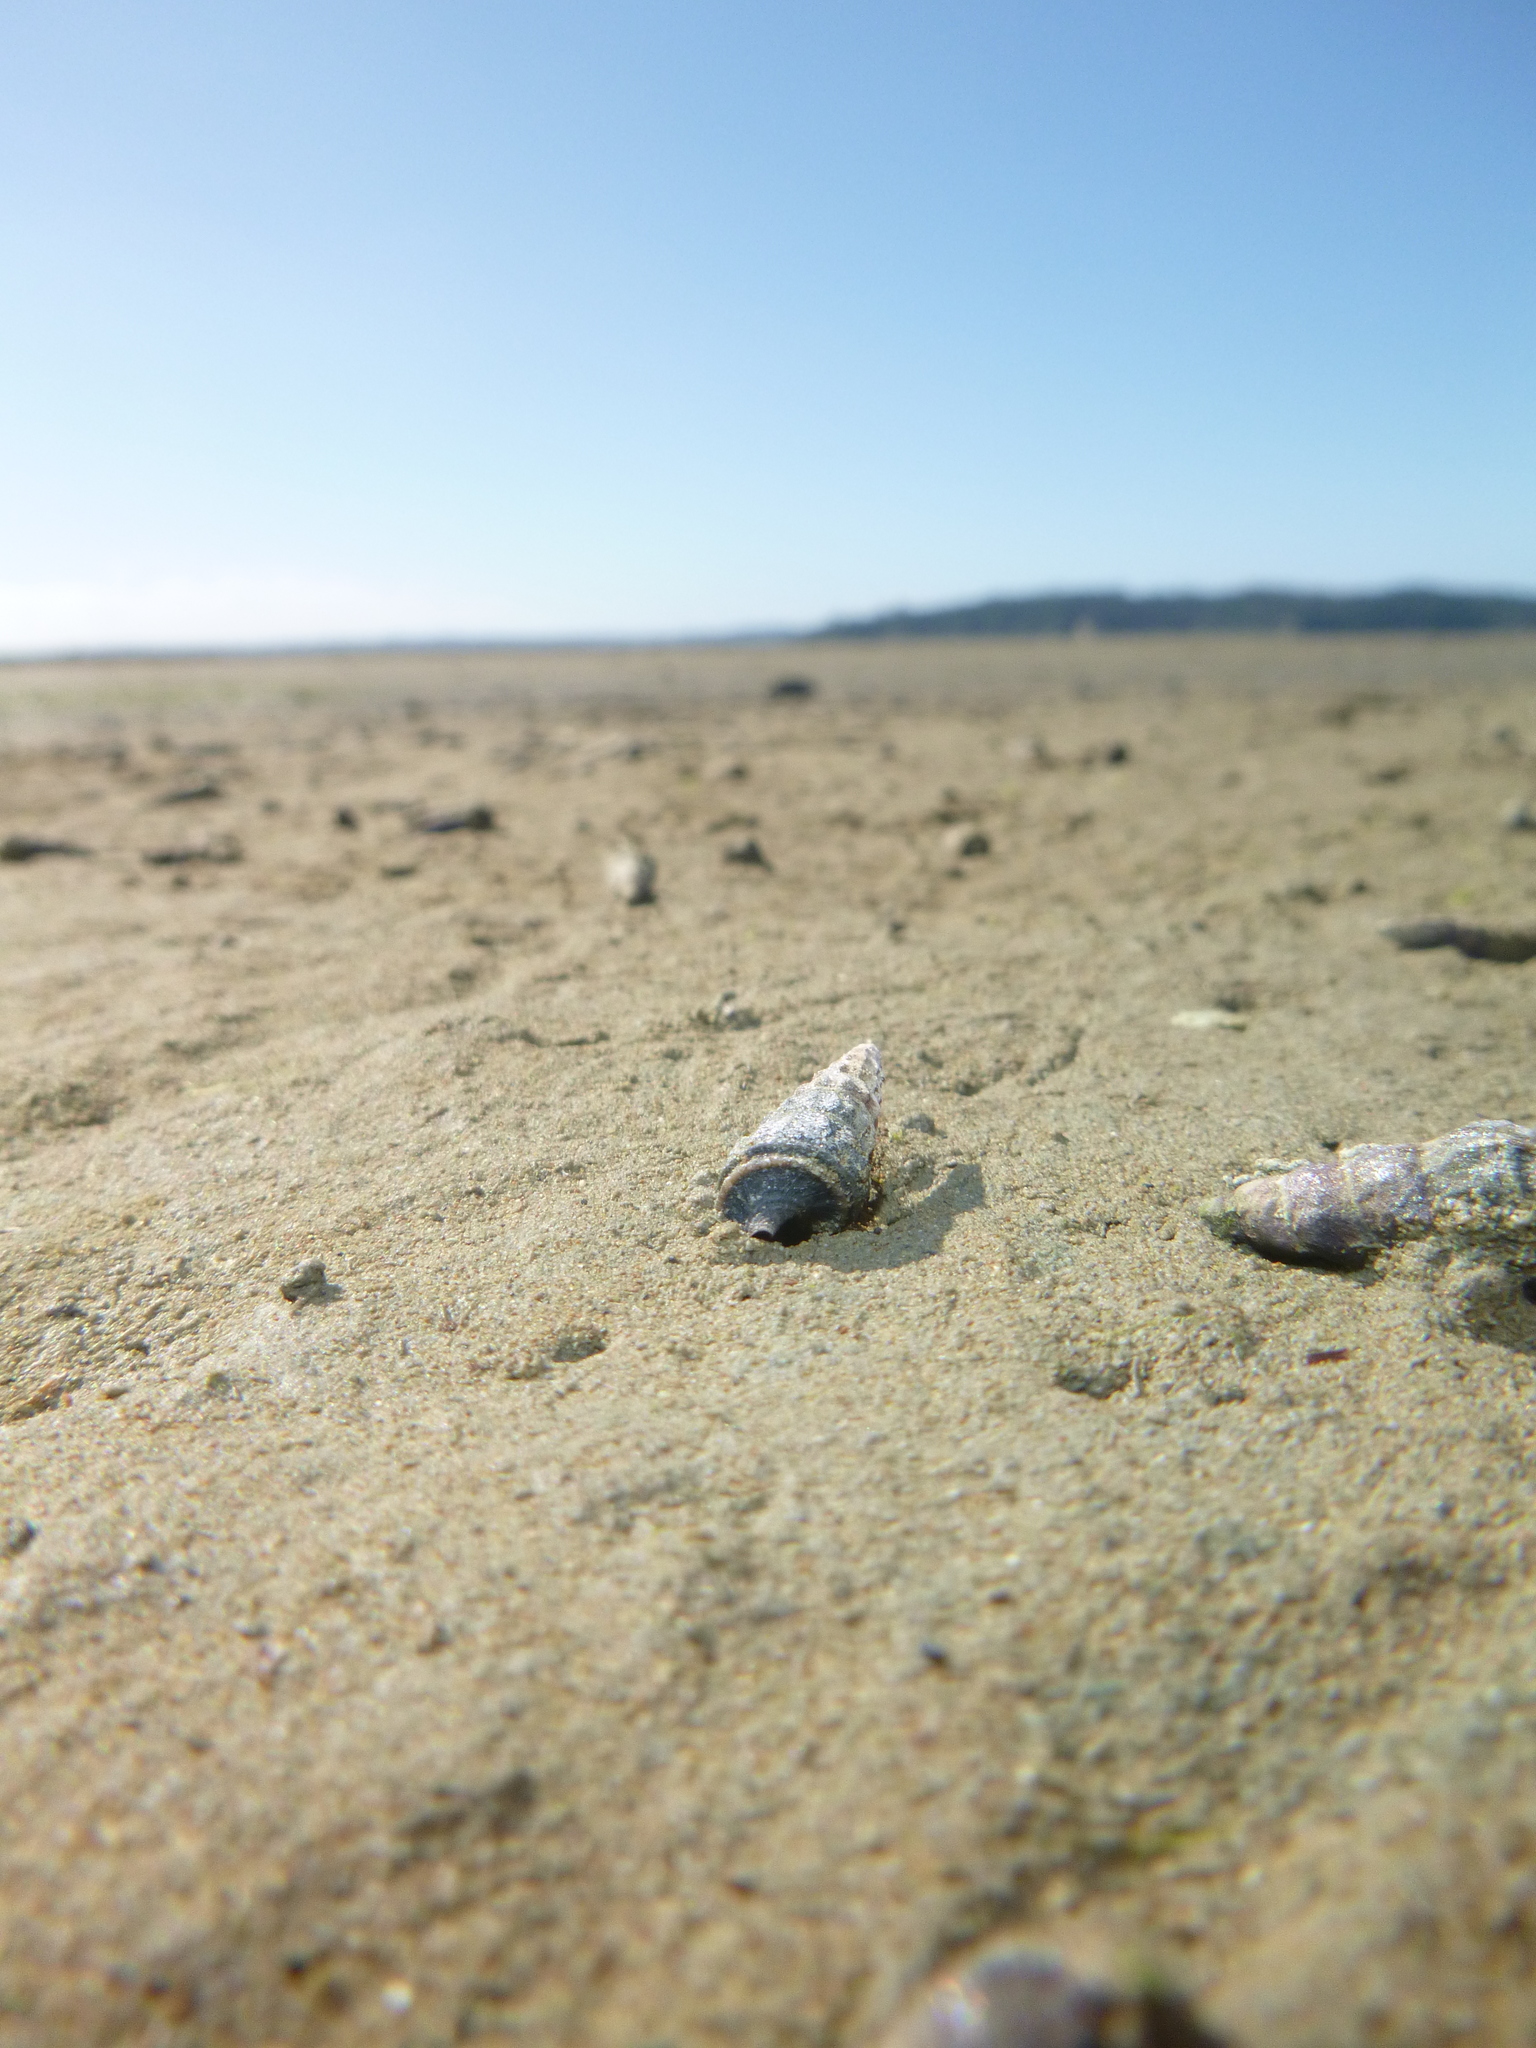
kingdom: Animalia
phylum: Mollusca
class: Gastropoda
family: Batillariidae
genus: Zeacumantus
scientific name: Zeacumantus lutulentus
